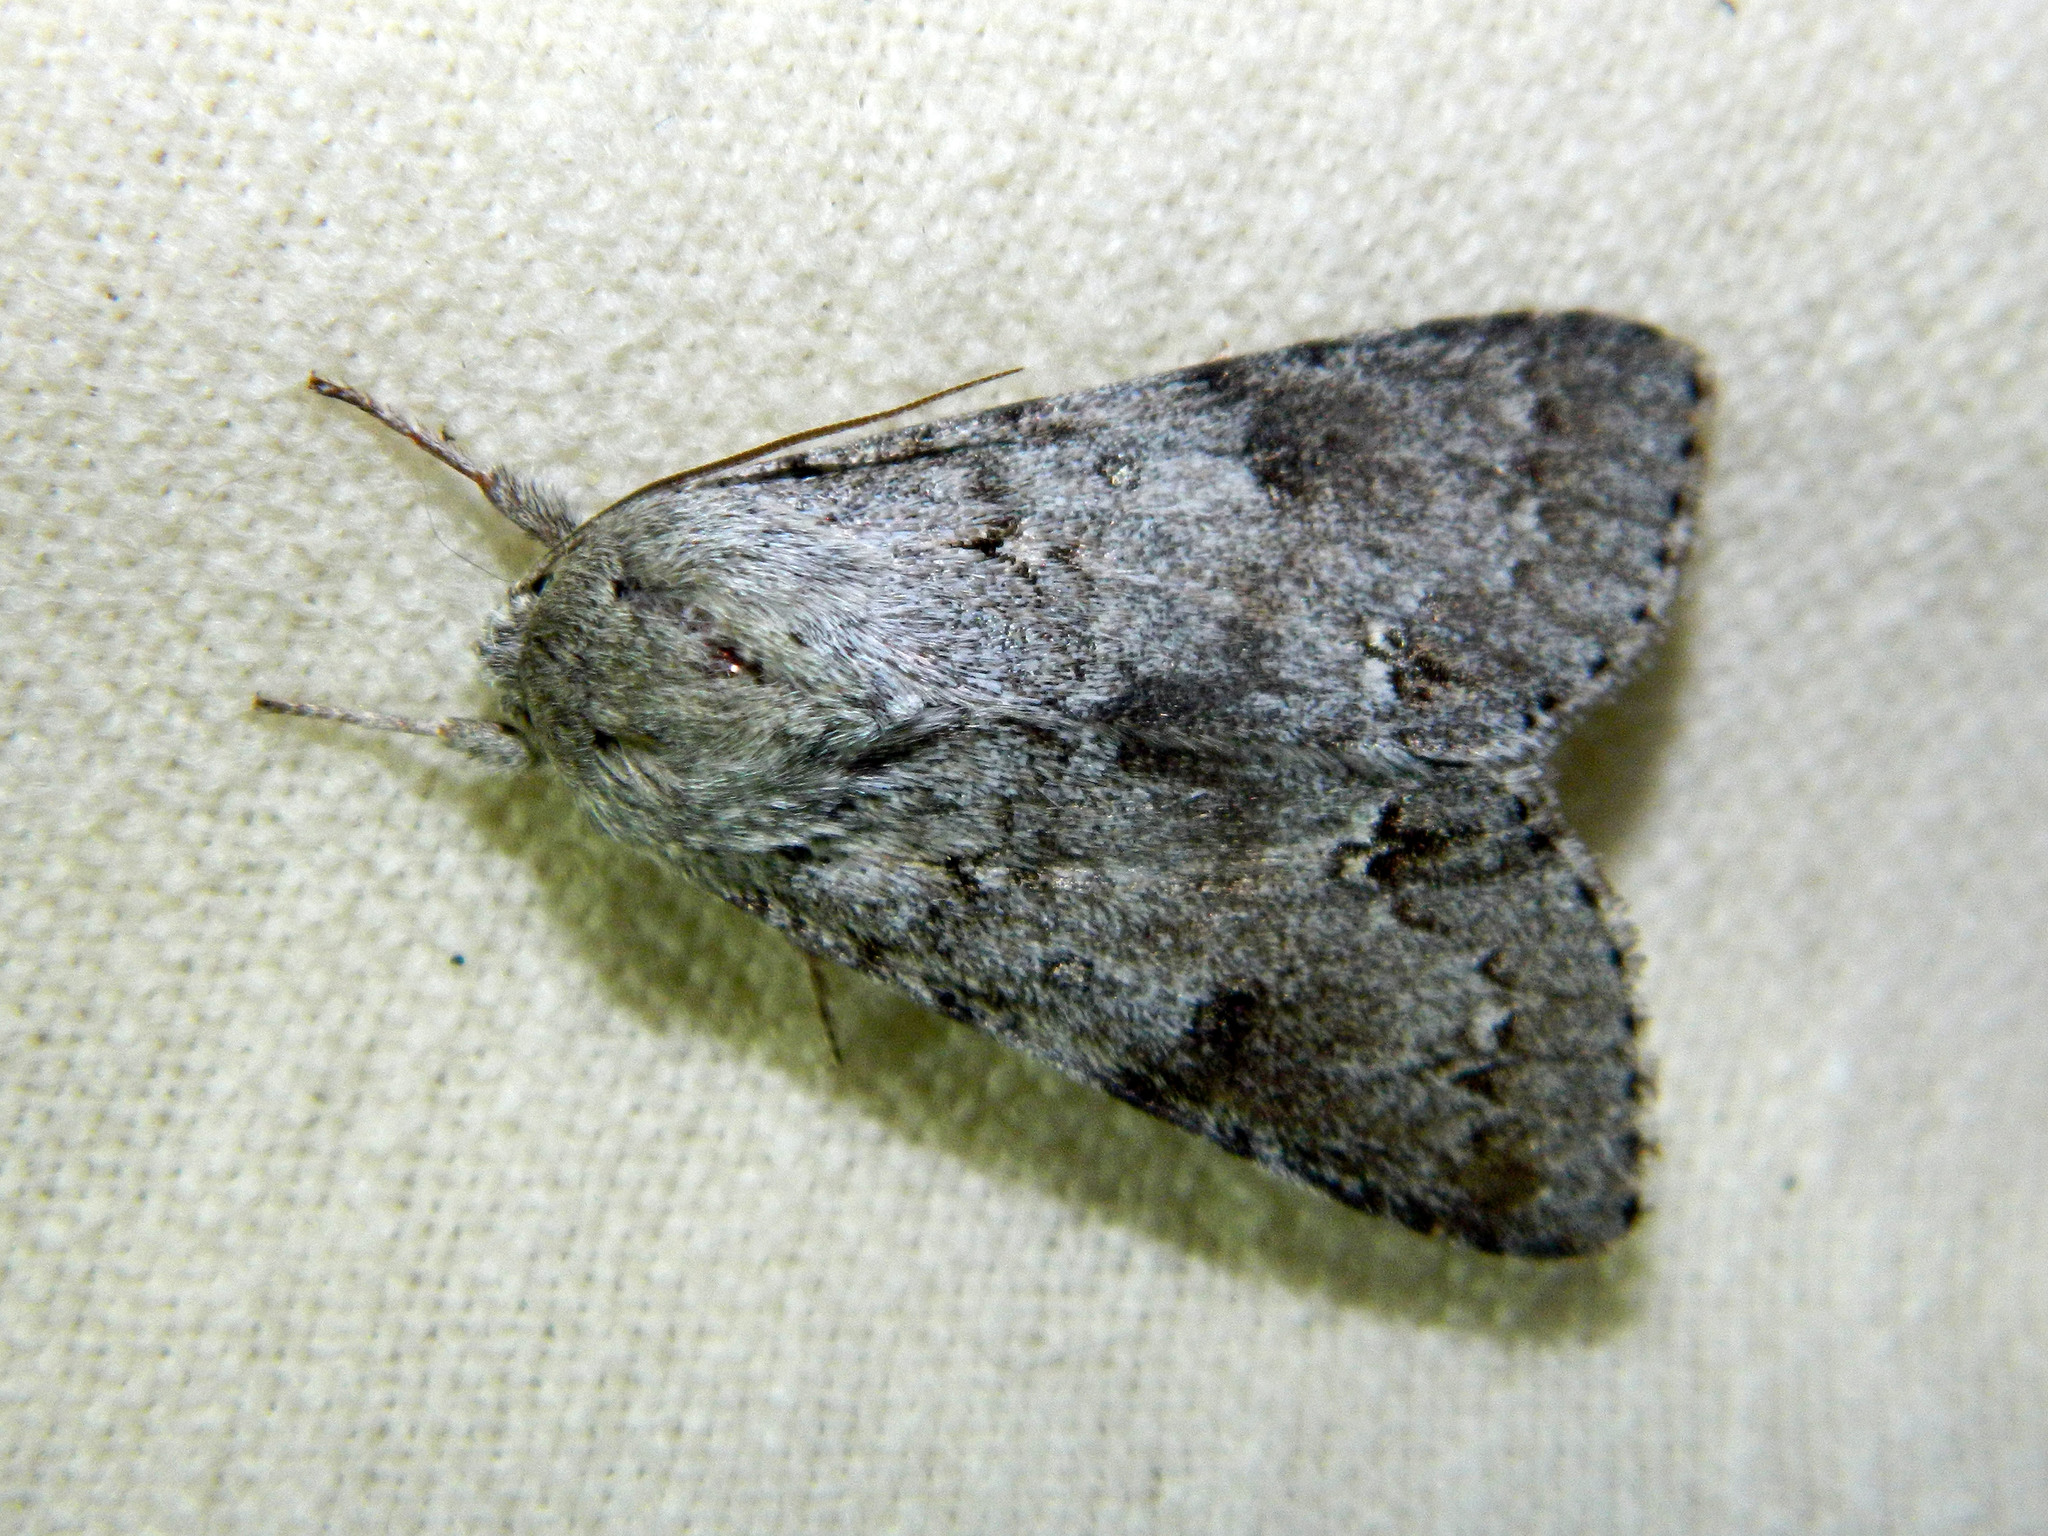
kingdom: Animalia
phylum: Arthropoda
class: Insecta
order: Lepidoptera
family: Noctuidae
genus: Acronicta
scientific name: Acronicta insita
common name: Large gray dagger
